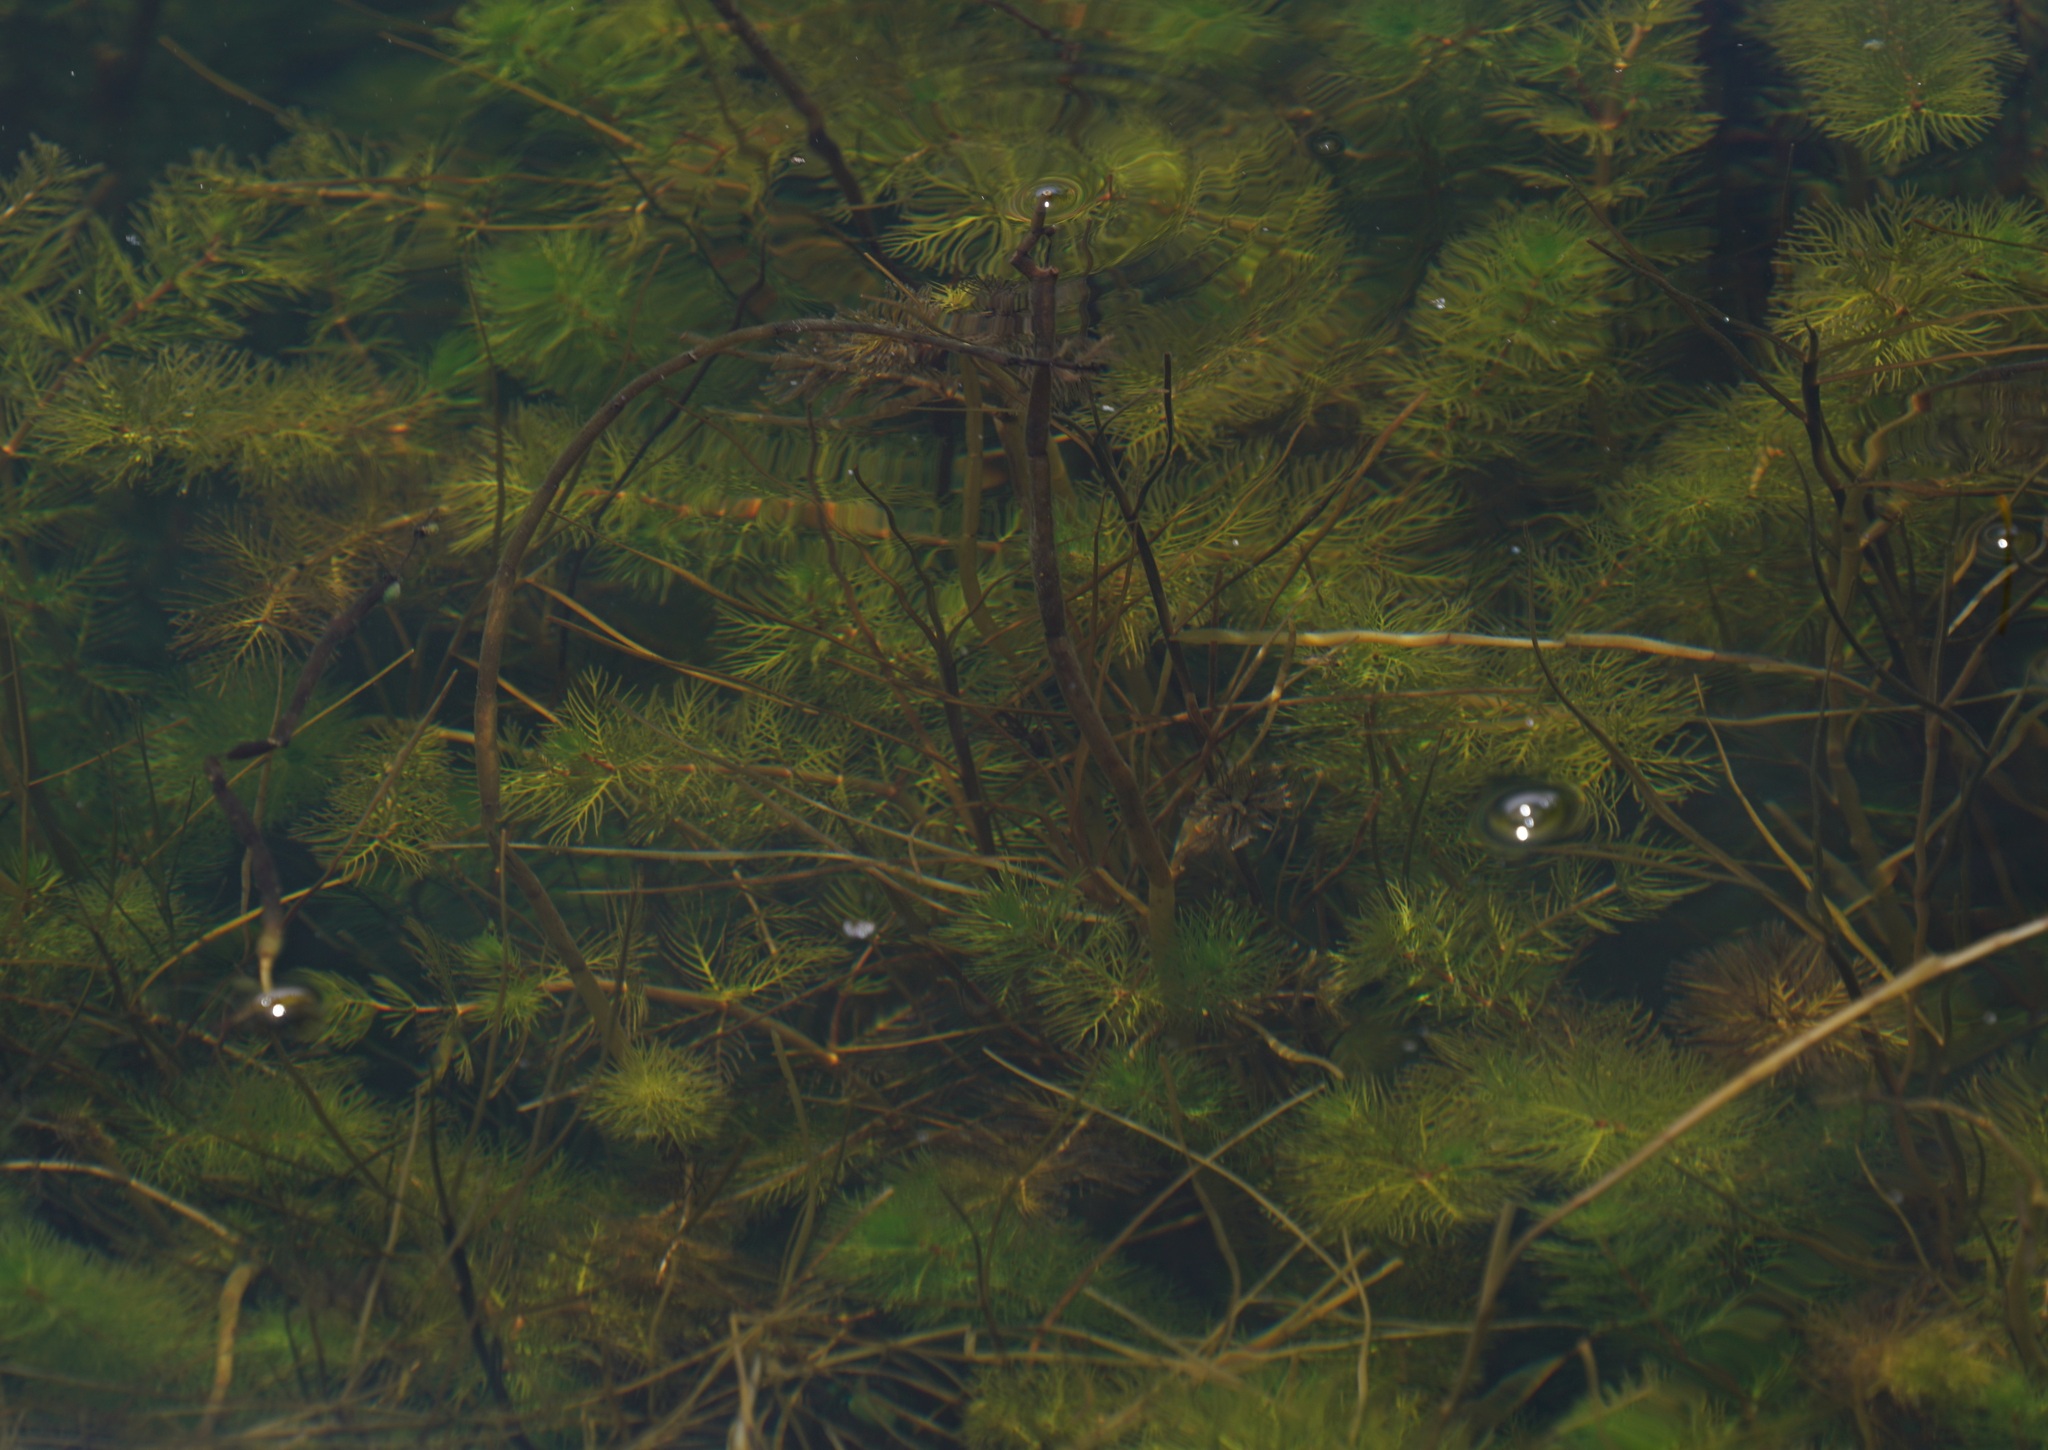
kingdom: Plantae
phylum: Tracheophyta
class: Magnoliopsida
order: Saxifragales
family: Haloragaceae
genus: Myriophyllum
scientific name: Myriophyllum quitense
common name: Andean water milfoil
